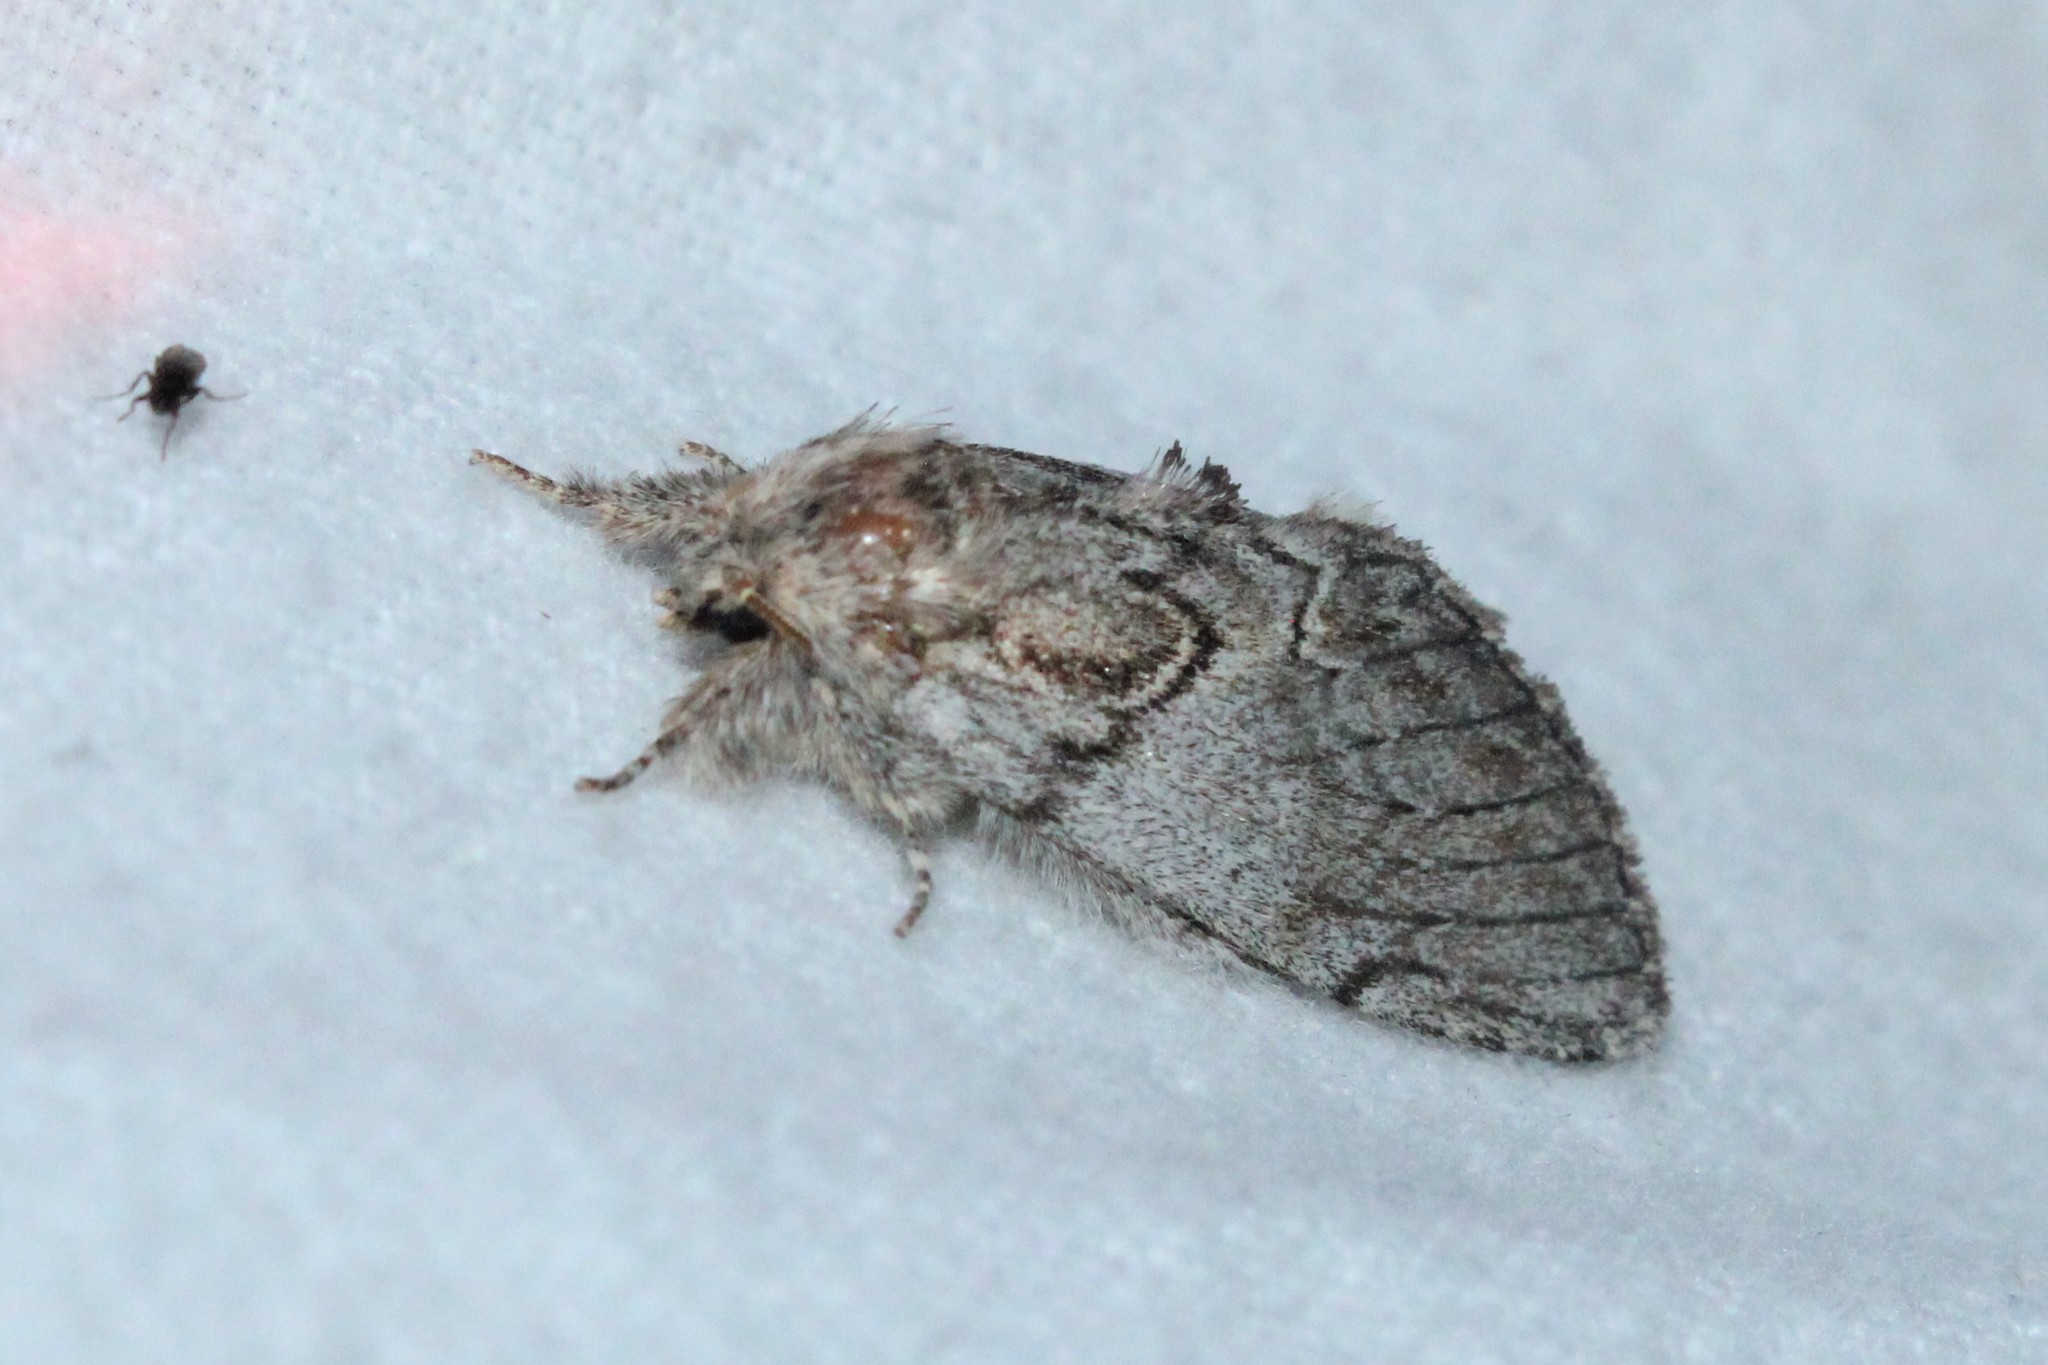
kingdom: Animalia
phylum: Arthropoda
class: Insecta
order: Lepidoptera
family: Notodontidae
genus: Peridea
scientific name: Peridea basitriens
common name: Oval-based prominent
